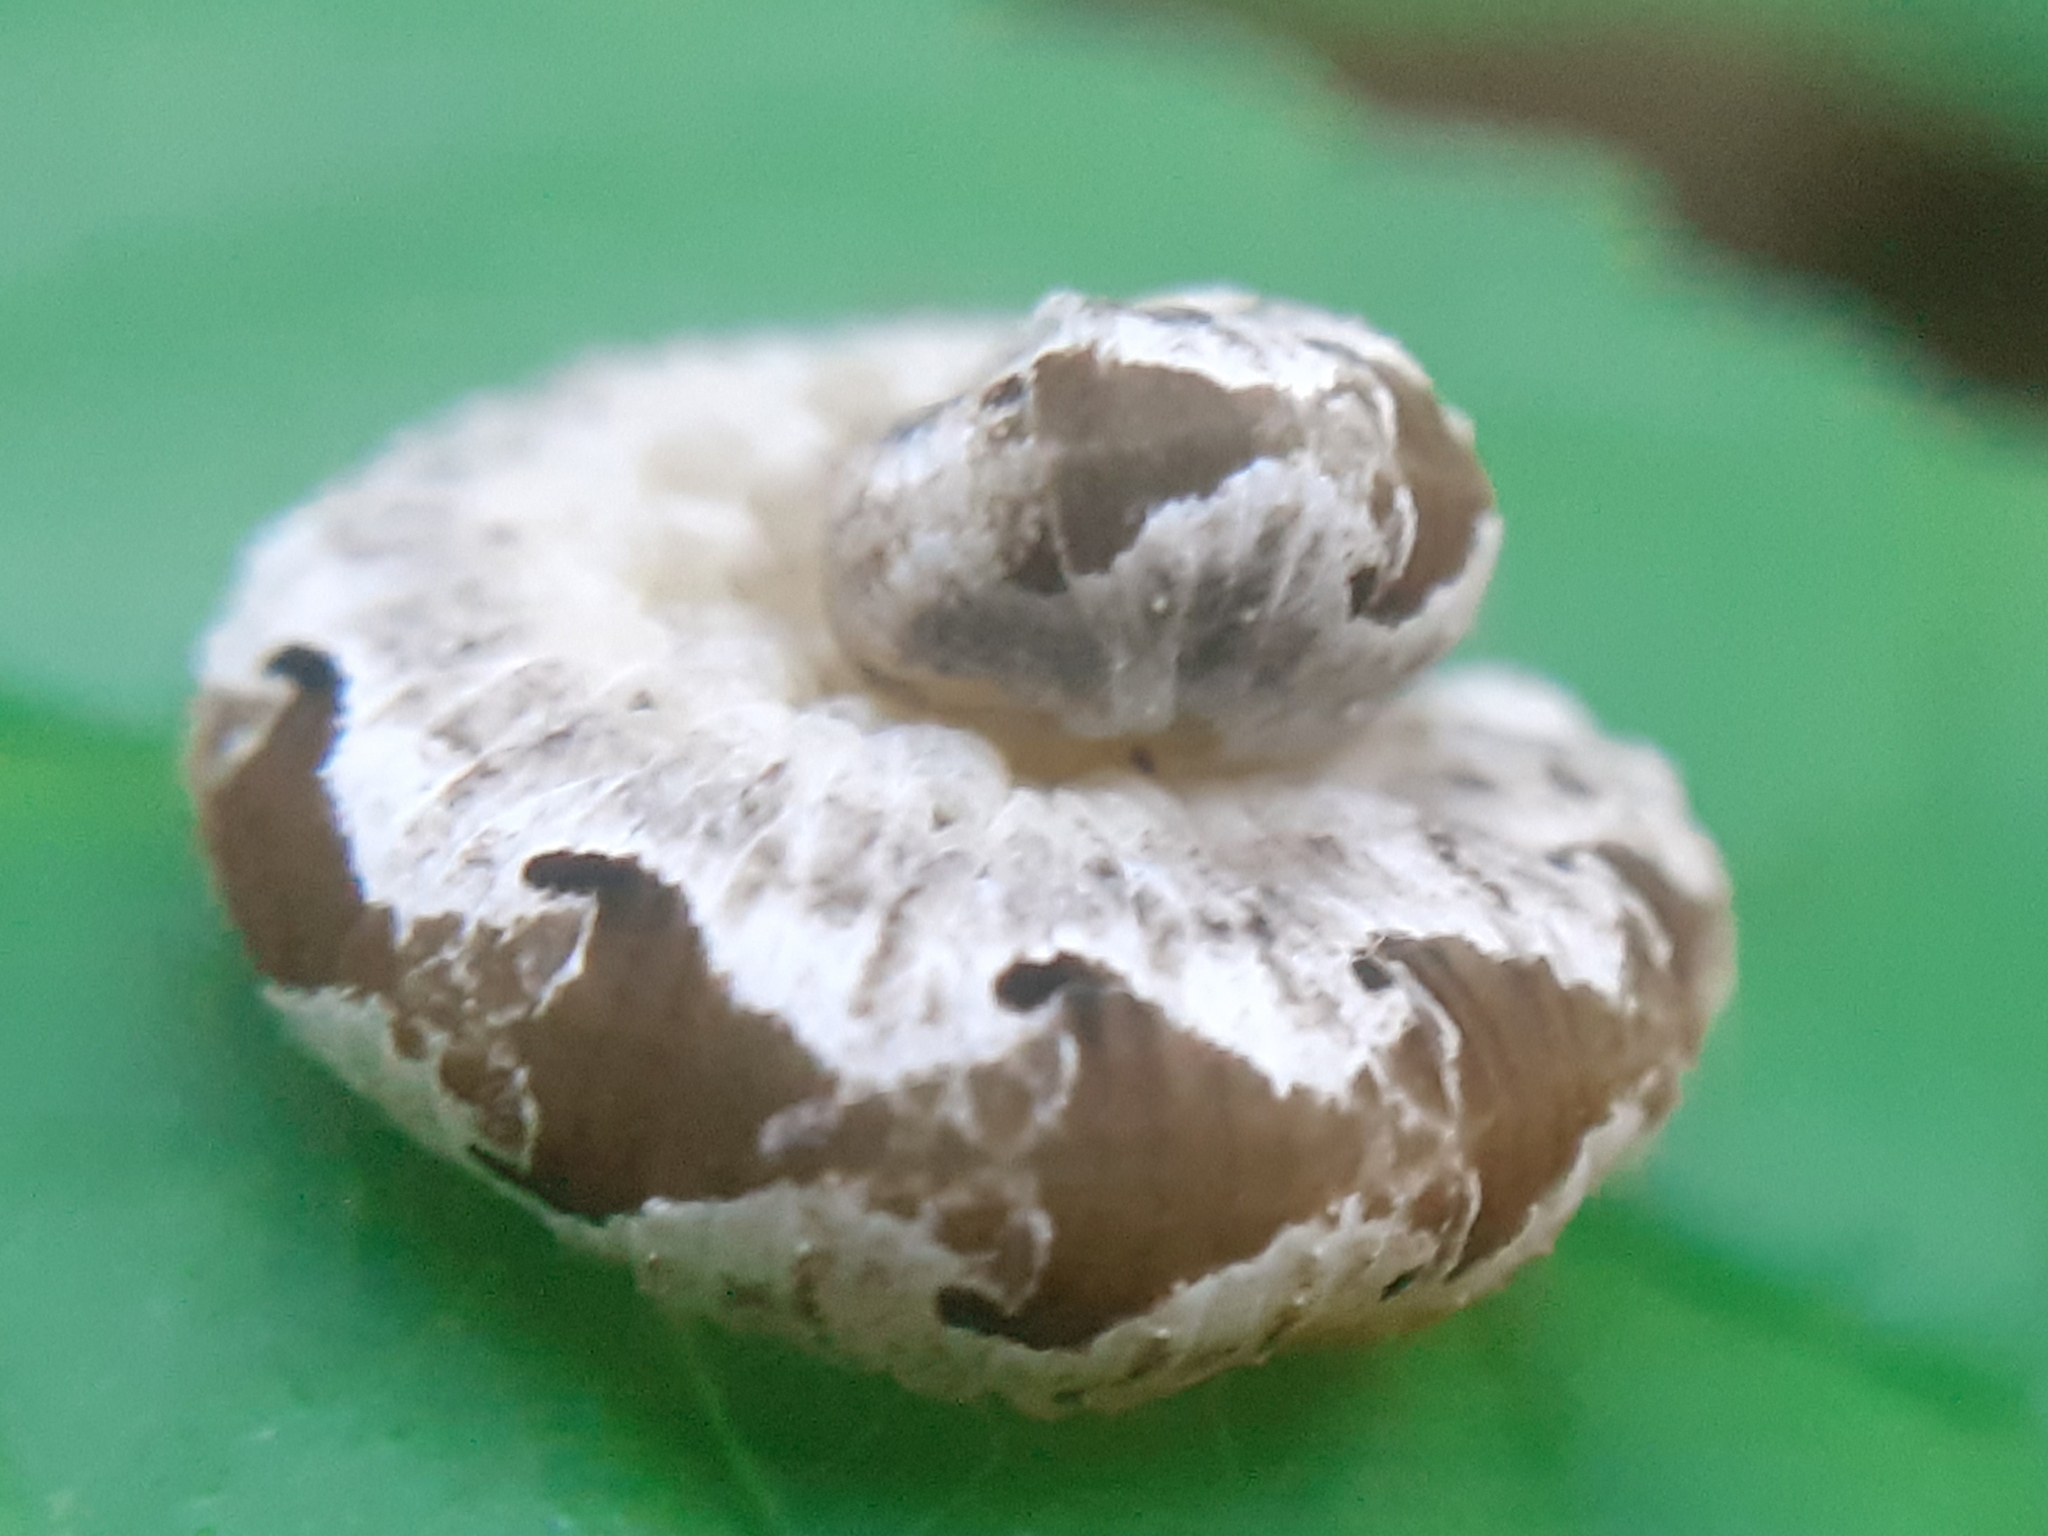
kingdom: Animalia
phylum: Arthropoda
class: Insecta
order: Hymenoptera
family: Tenthredinidae
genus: Tenthredo
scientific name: Tenthredo vespa
